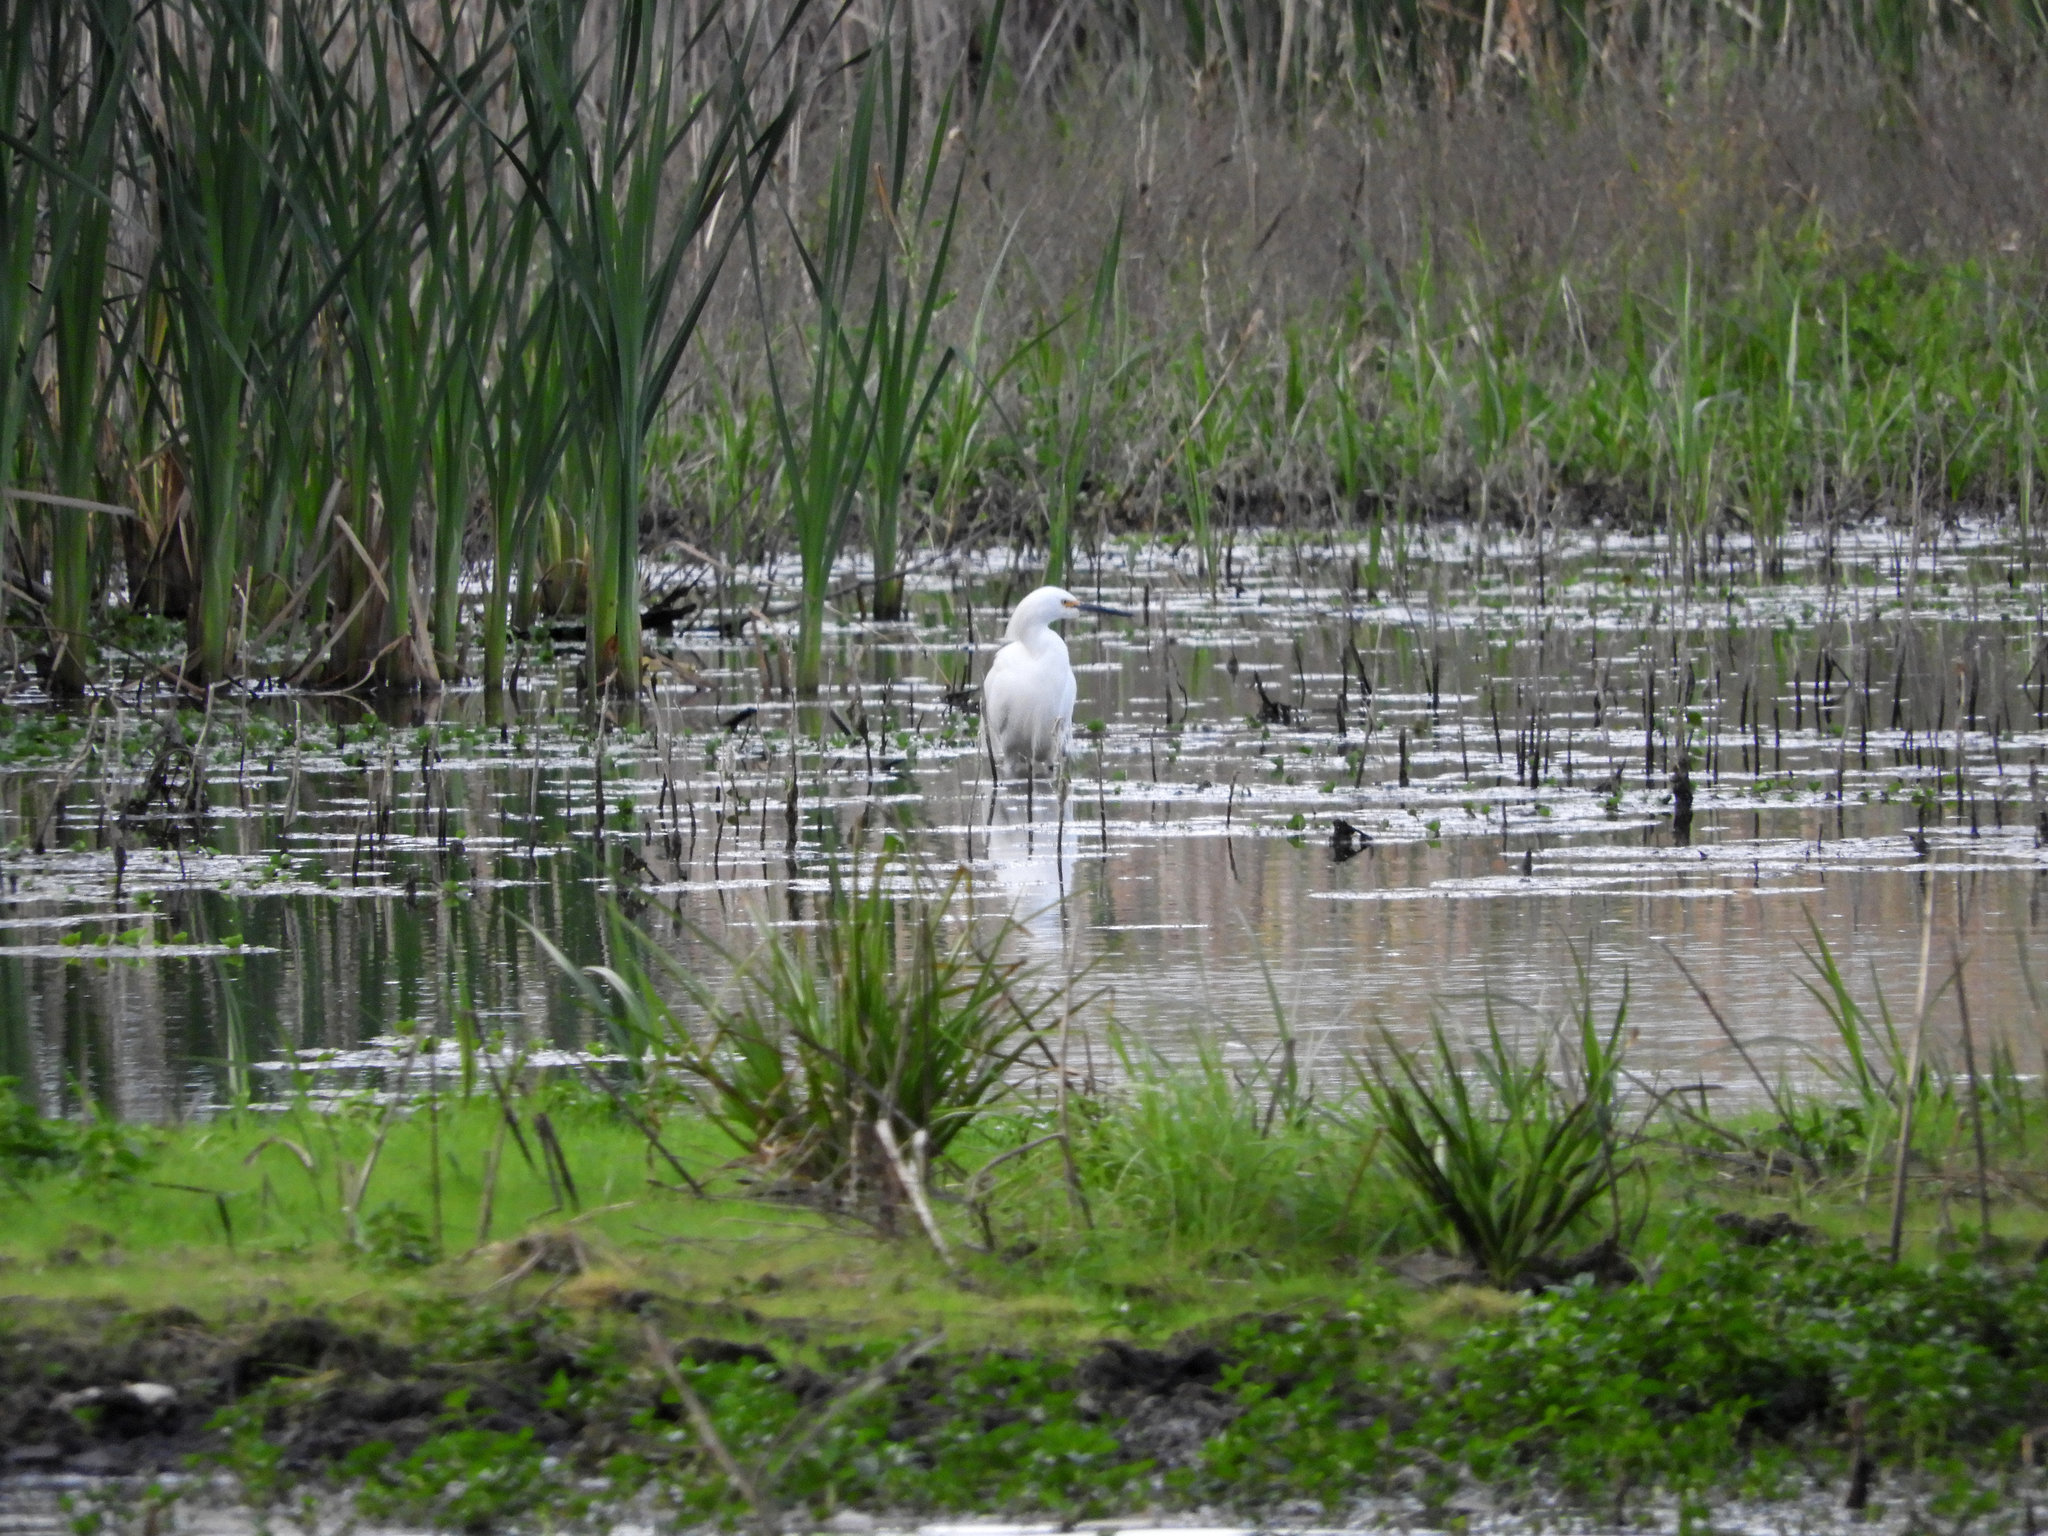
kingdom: Animalia
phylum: Chordata
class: Aves
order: Pelecaniformes
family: Ardeidae
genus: Egretta
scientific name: Egretta thula
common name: Snowy egret
